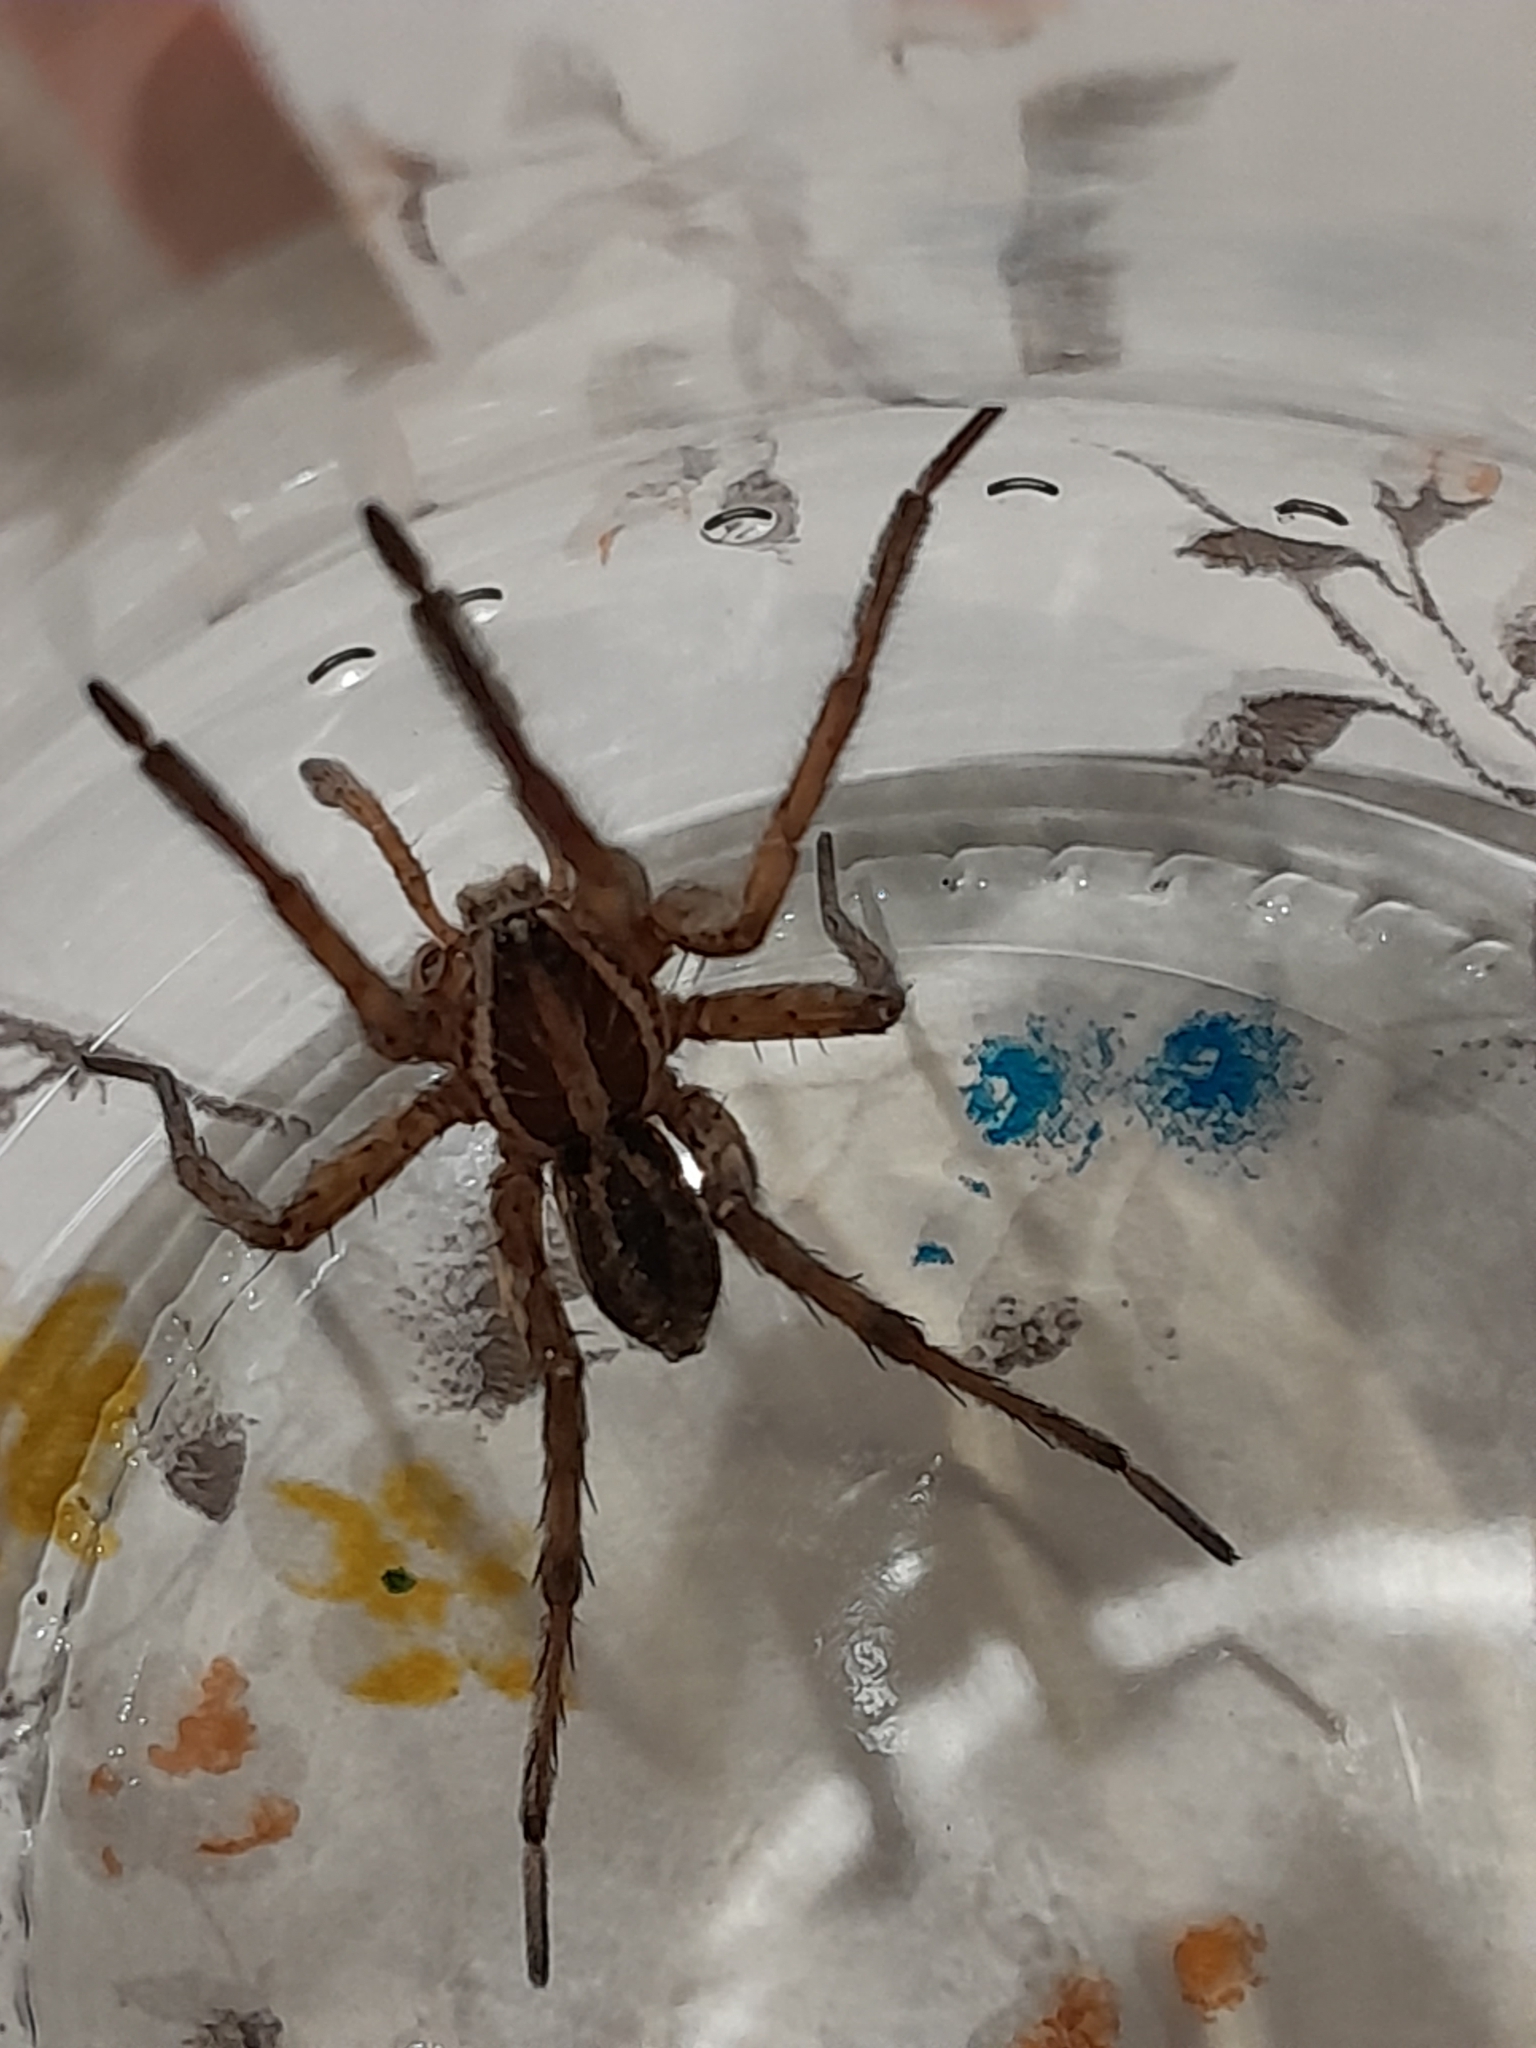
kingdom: Animalia
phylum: Arthropoda
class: Arachnida
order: Araneae
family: Lycosidae
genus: Hogna
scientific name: Hogna radiata
